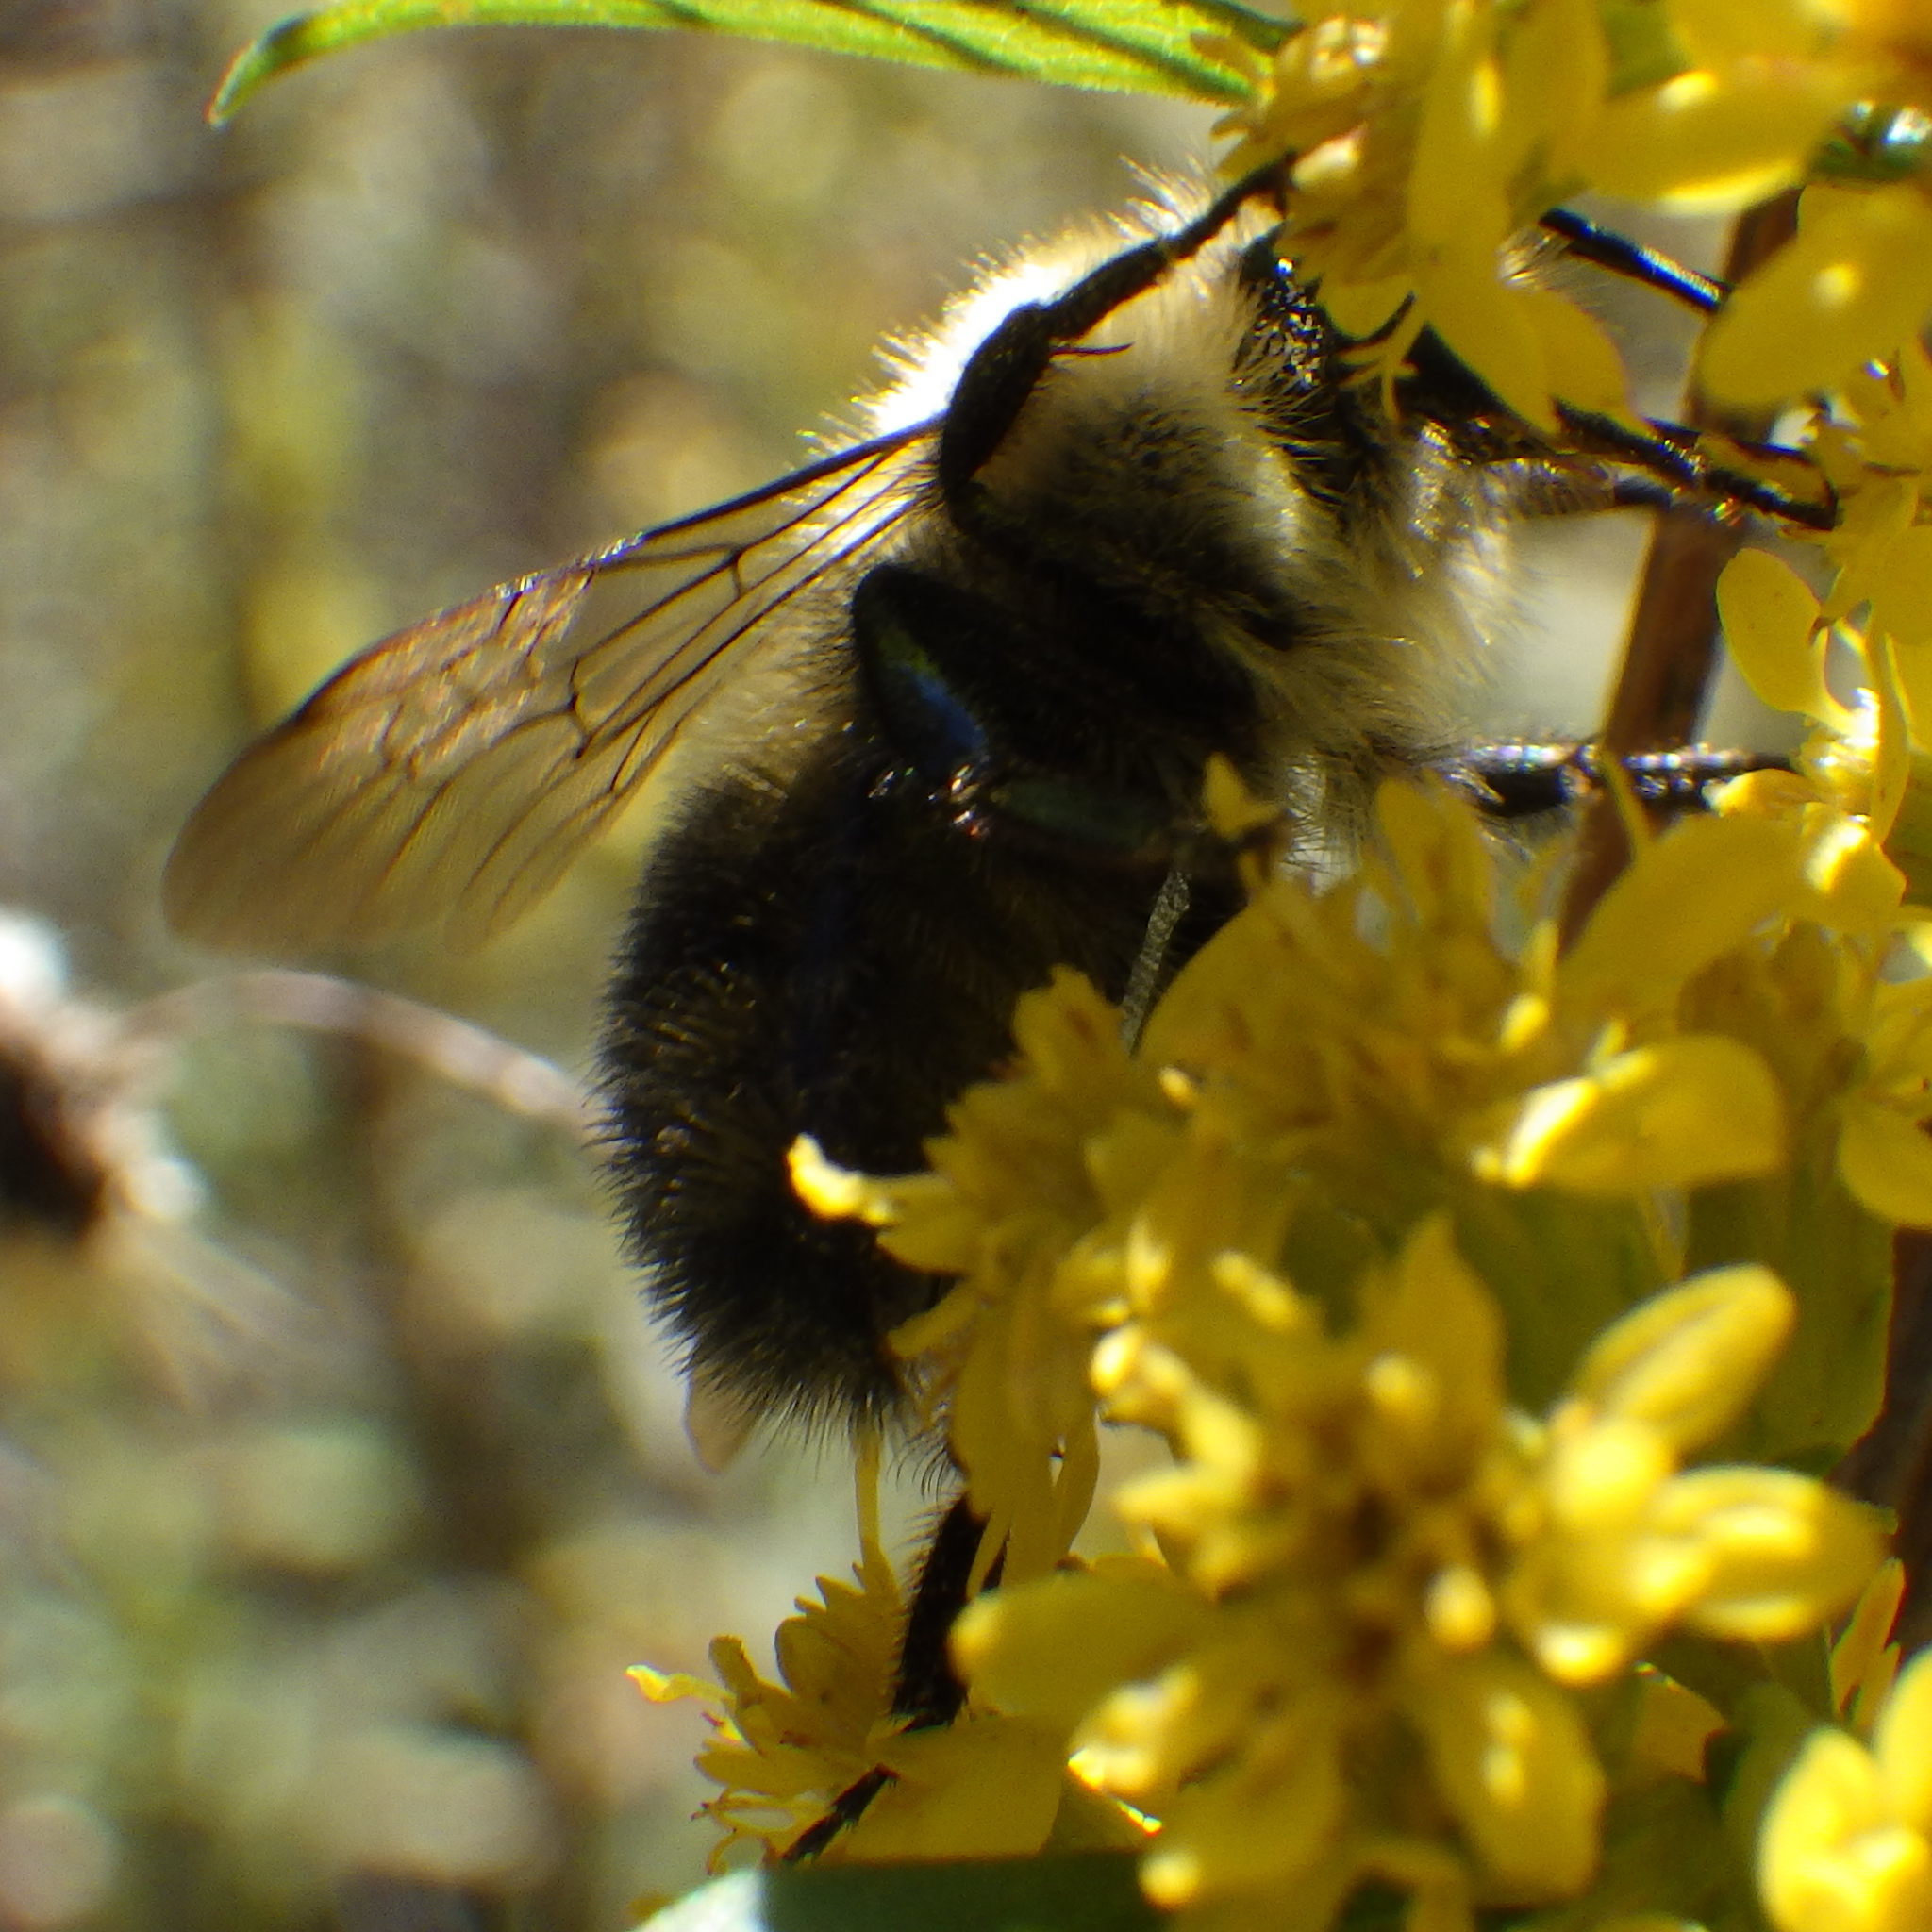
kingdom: Animalia
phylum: Arthropoda
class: Insecta
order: Hymenoptera
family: Apidae
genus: Pyrobombus
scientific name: Pyrobombus
